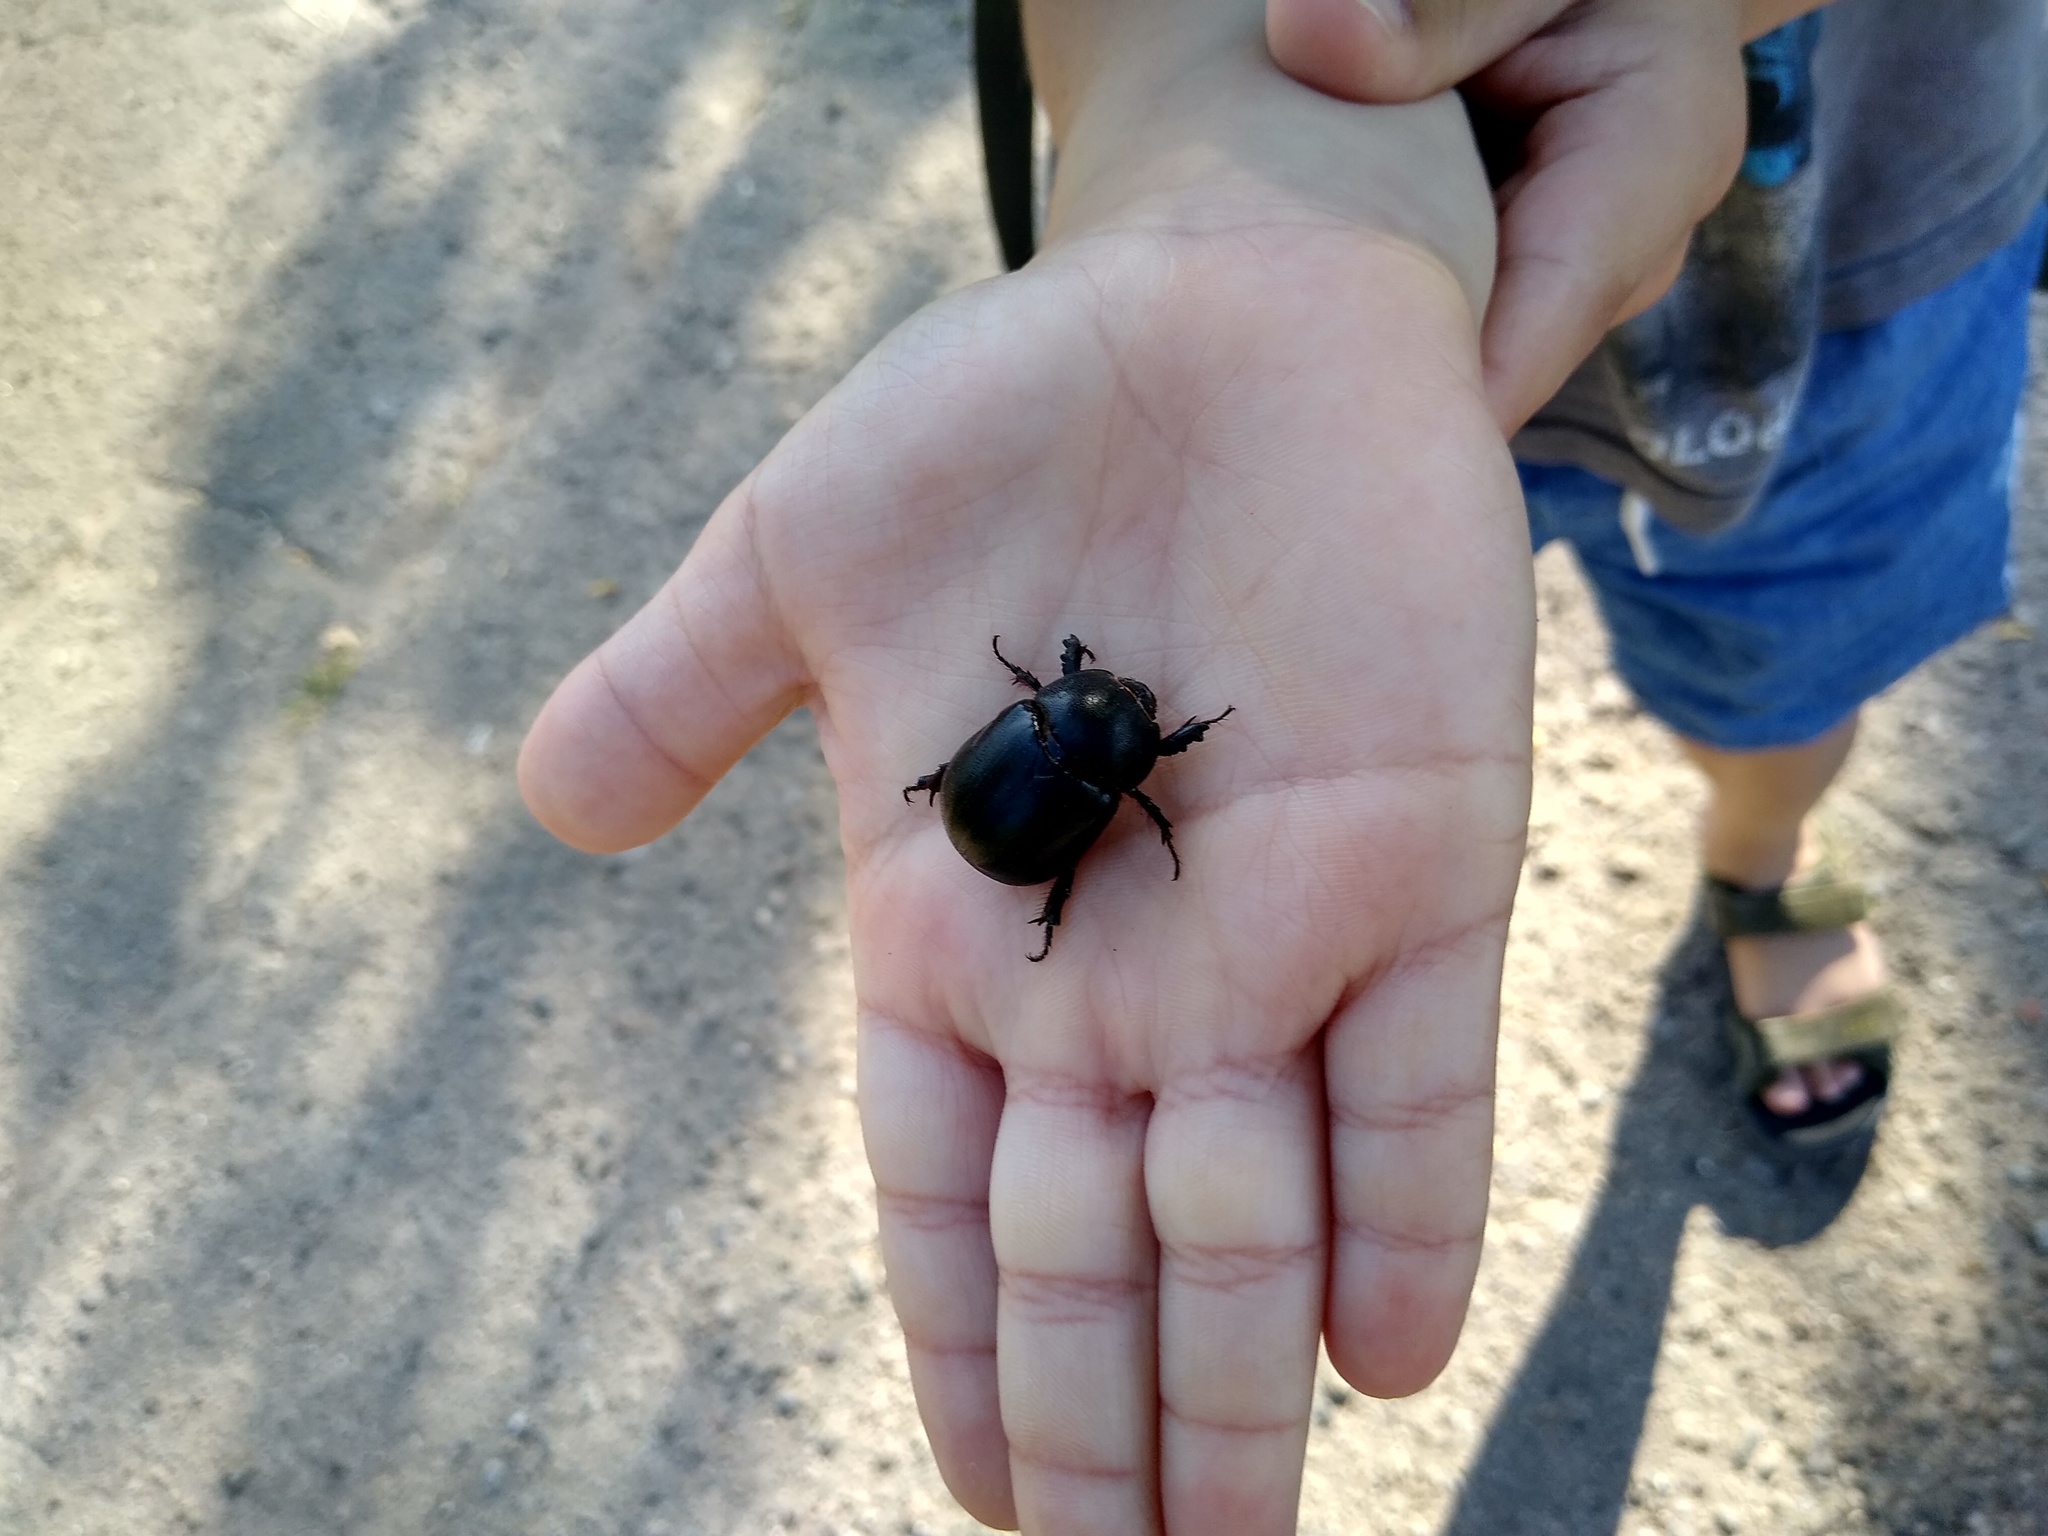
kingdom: Animalia
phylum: Arthropoda
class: Insecta
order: Coleoptera
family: Scarabaeidae
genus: Pentodon
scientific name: Pentodon idiota
